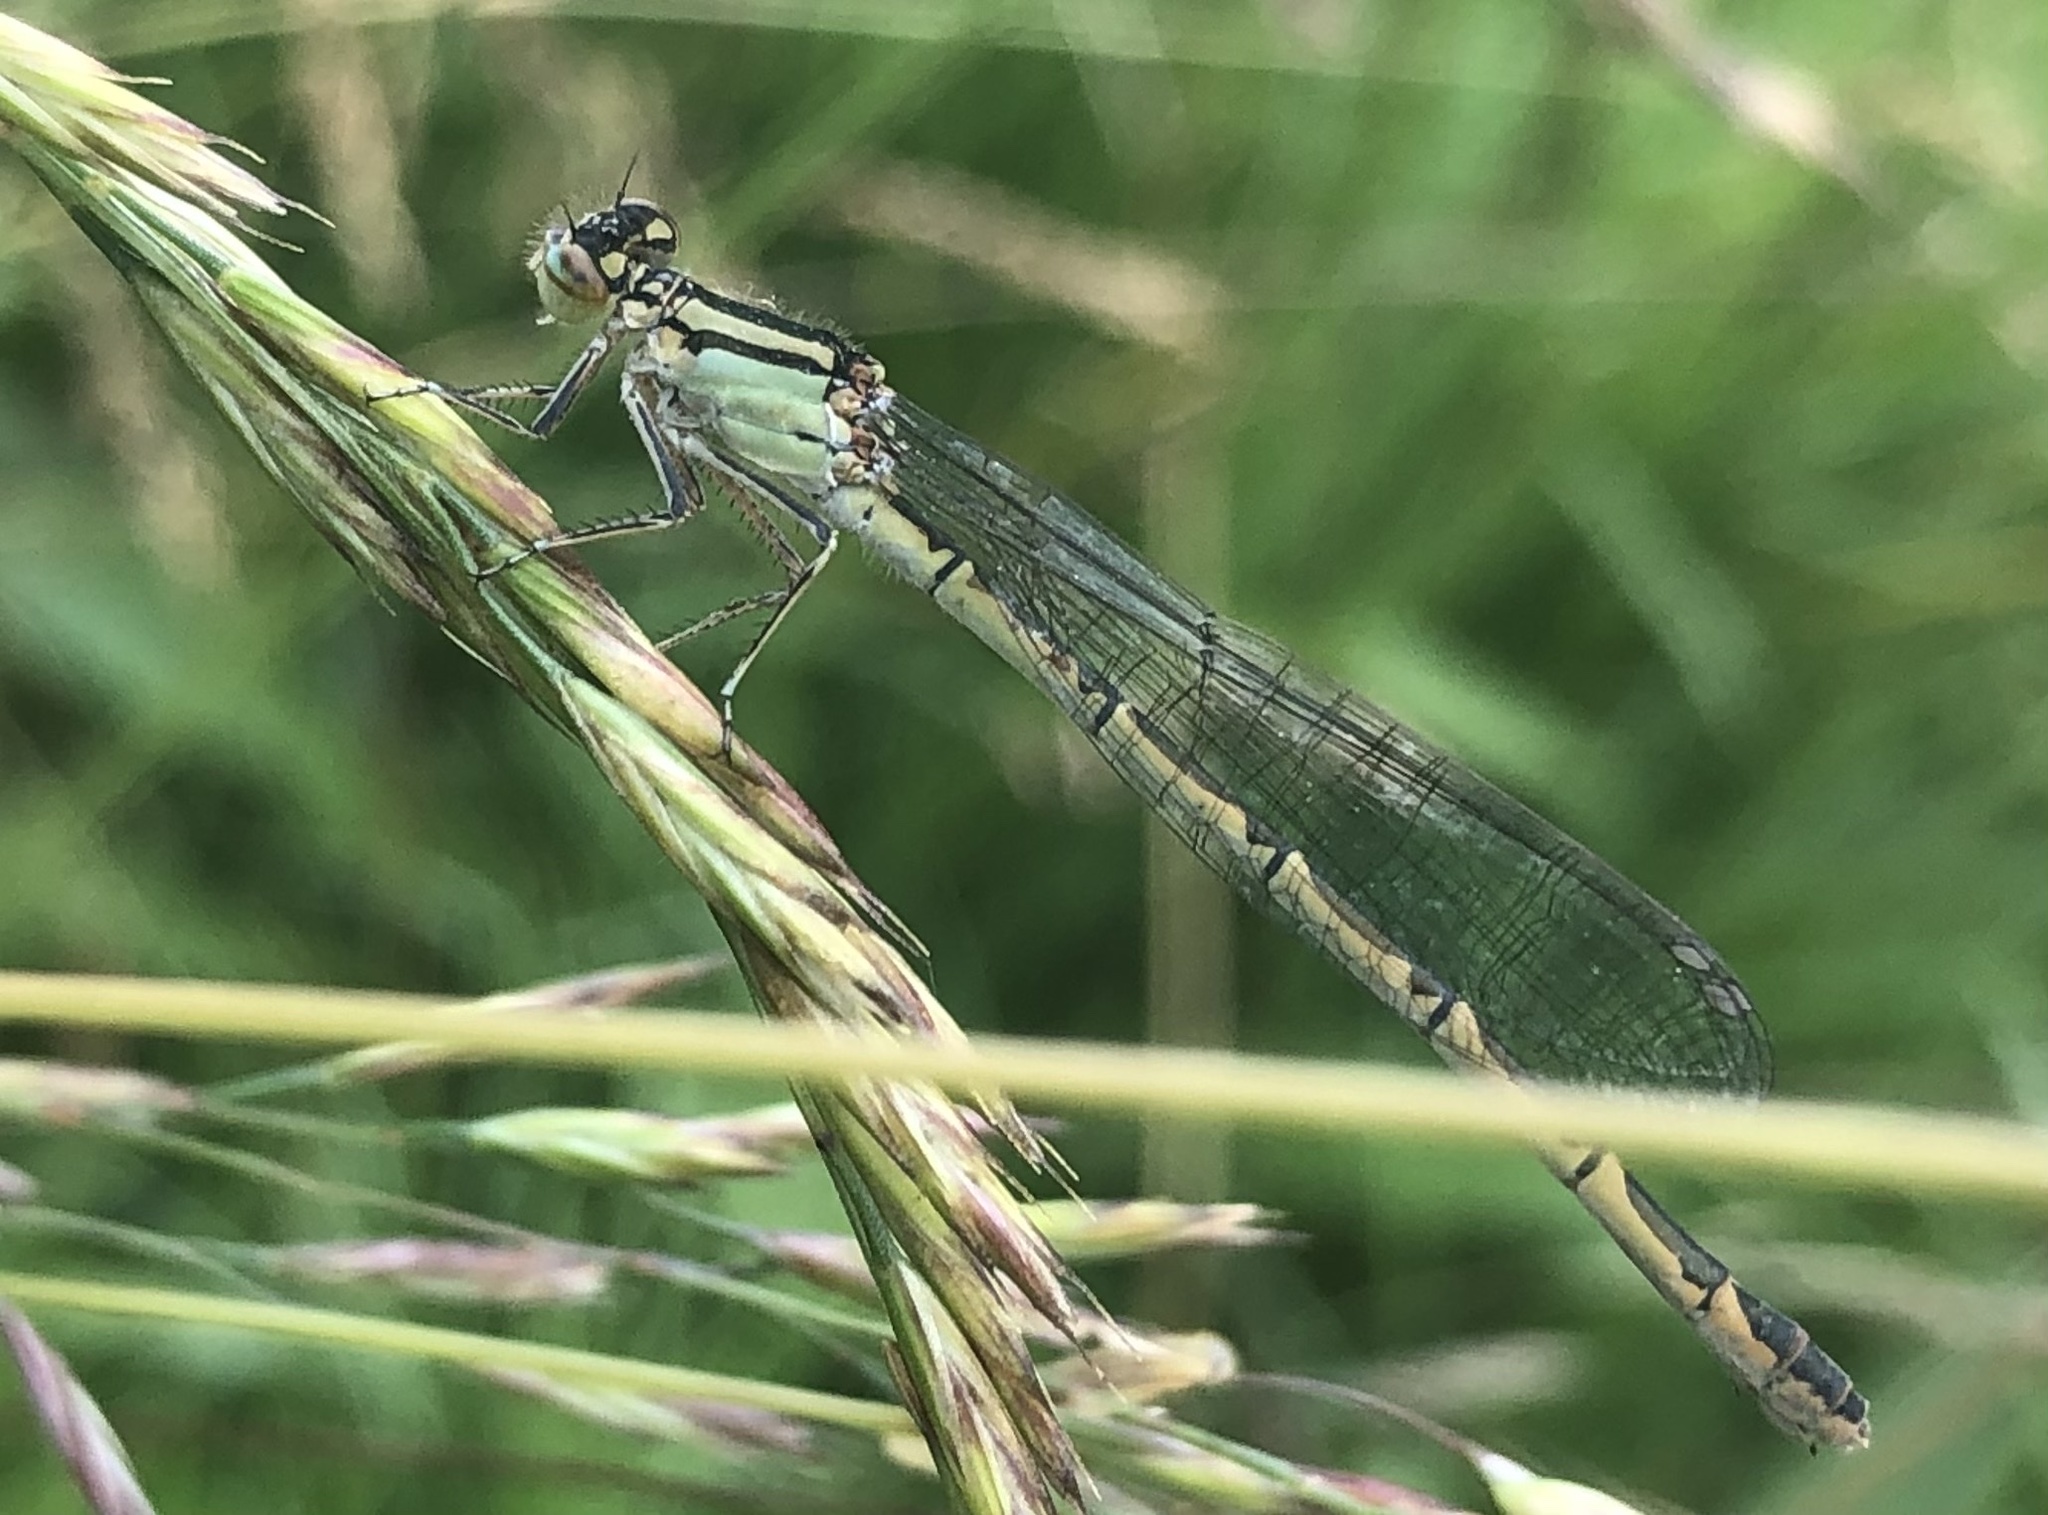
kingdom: Animalia
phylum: Arthropoda
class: Insecta
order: Odonata
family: Coenagrionidae
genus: Enallagma
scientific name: Enallagma cyathigerum
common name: Common blue damselfly
